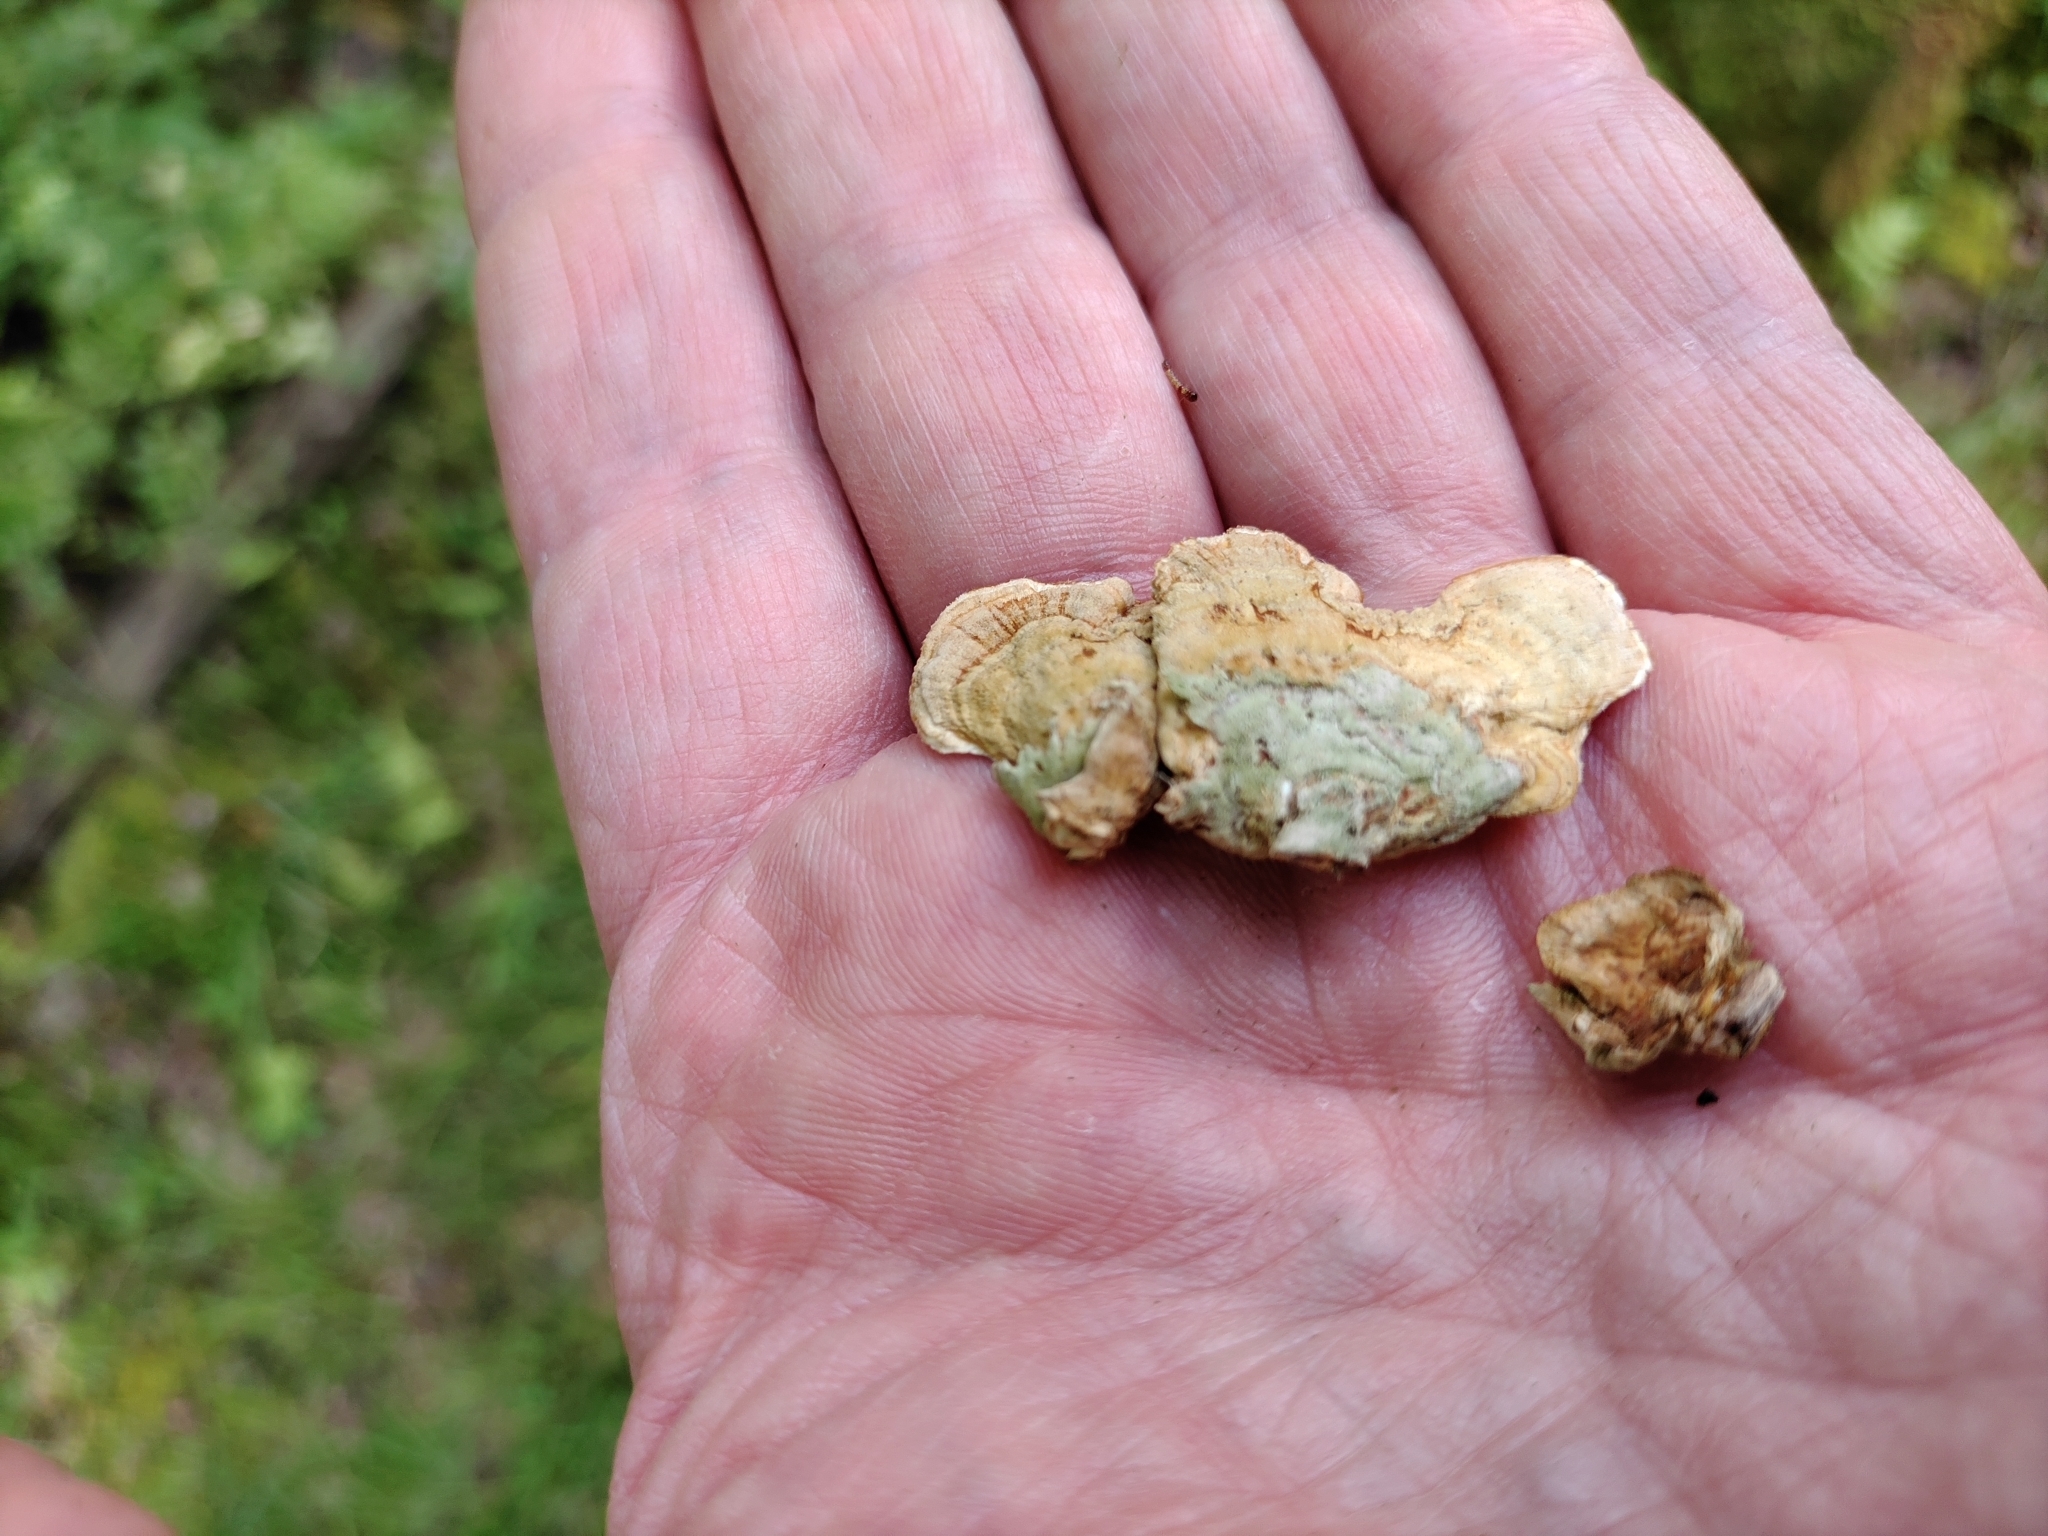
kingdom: Fungi
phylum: Basidiomycota
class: Agaricomycetes
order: Russulales
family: Stereaceae
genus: Stereum
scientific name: Stereum ostrea
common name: False turkeytail
